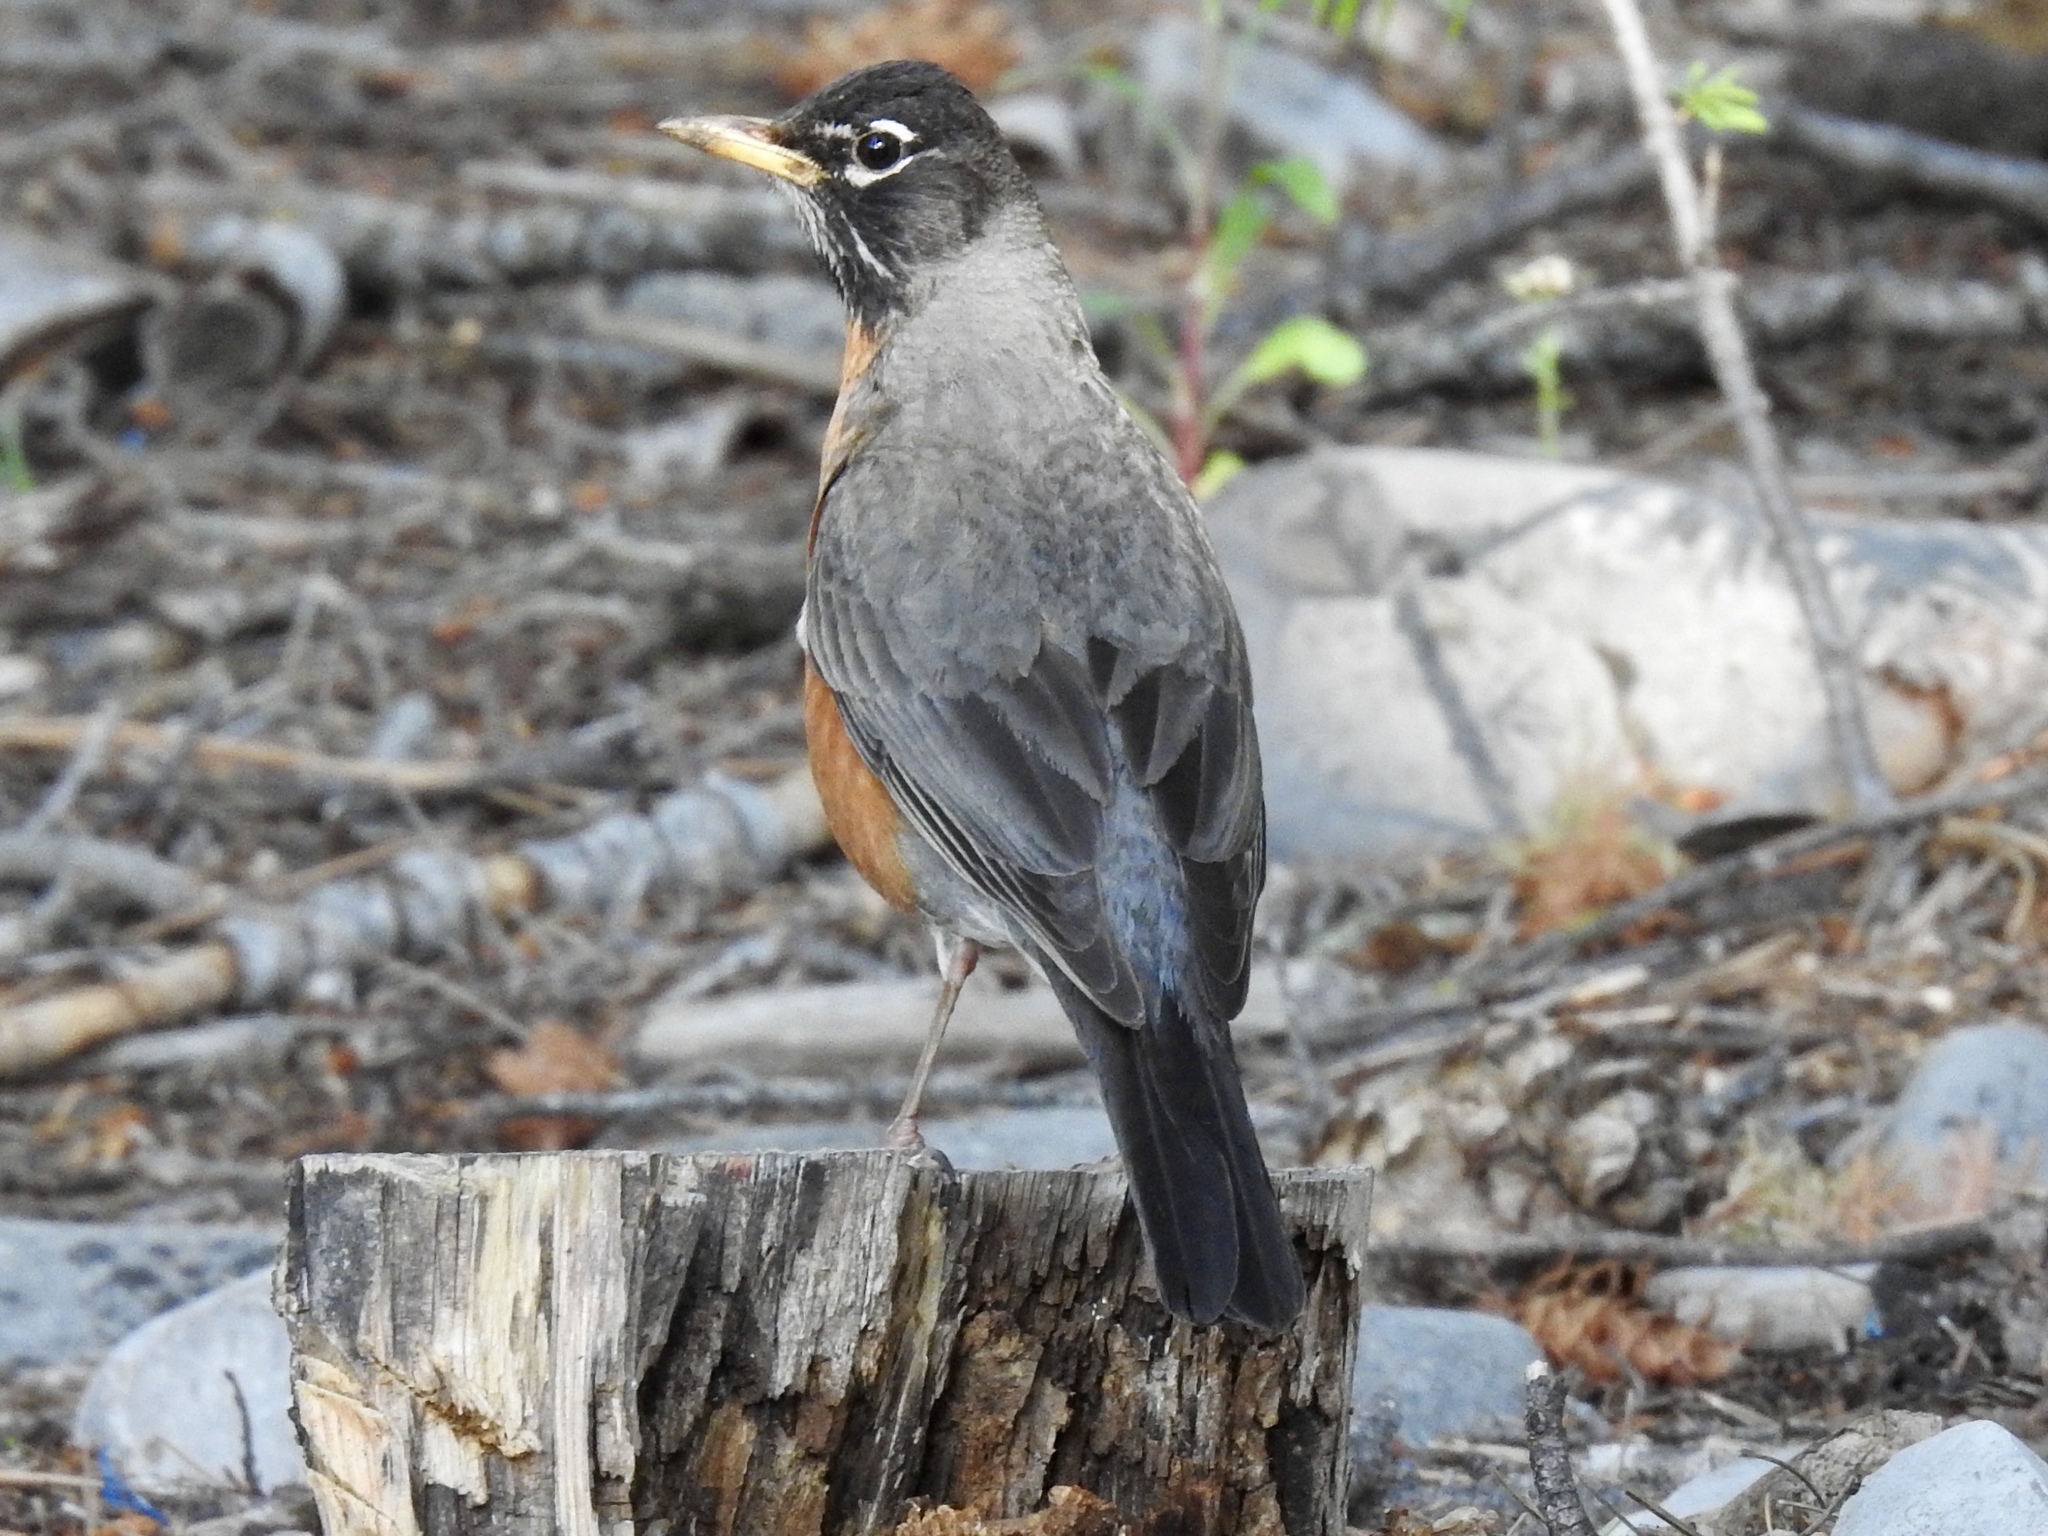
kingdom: Animalia
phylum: Chordata
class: Aves
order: Passeriformes
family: Turdidae
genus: Turdus
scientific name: Turdus migratorius
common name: American robin
